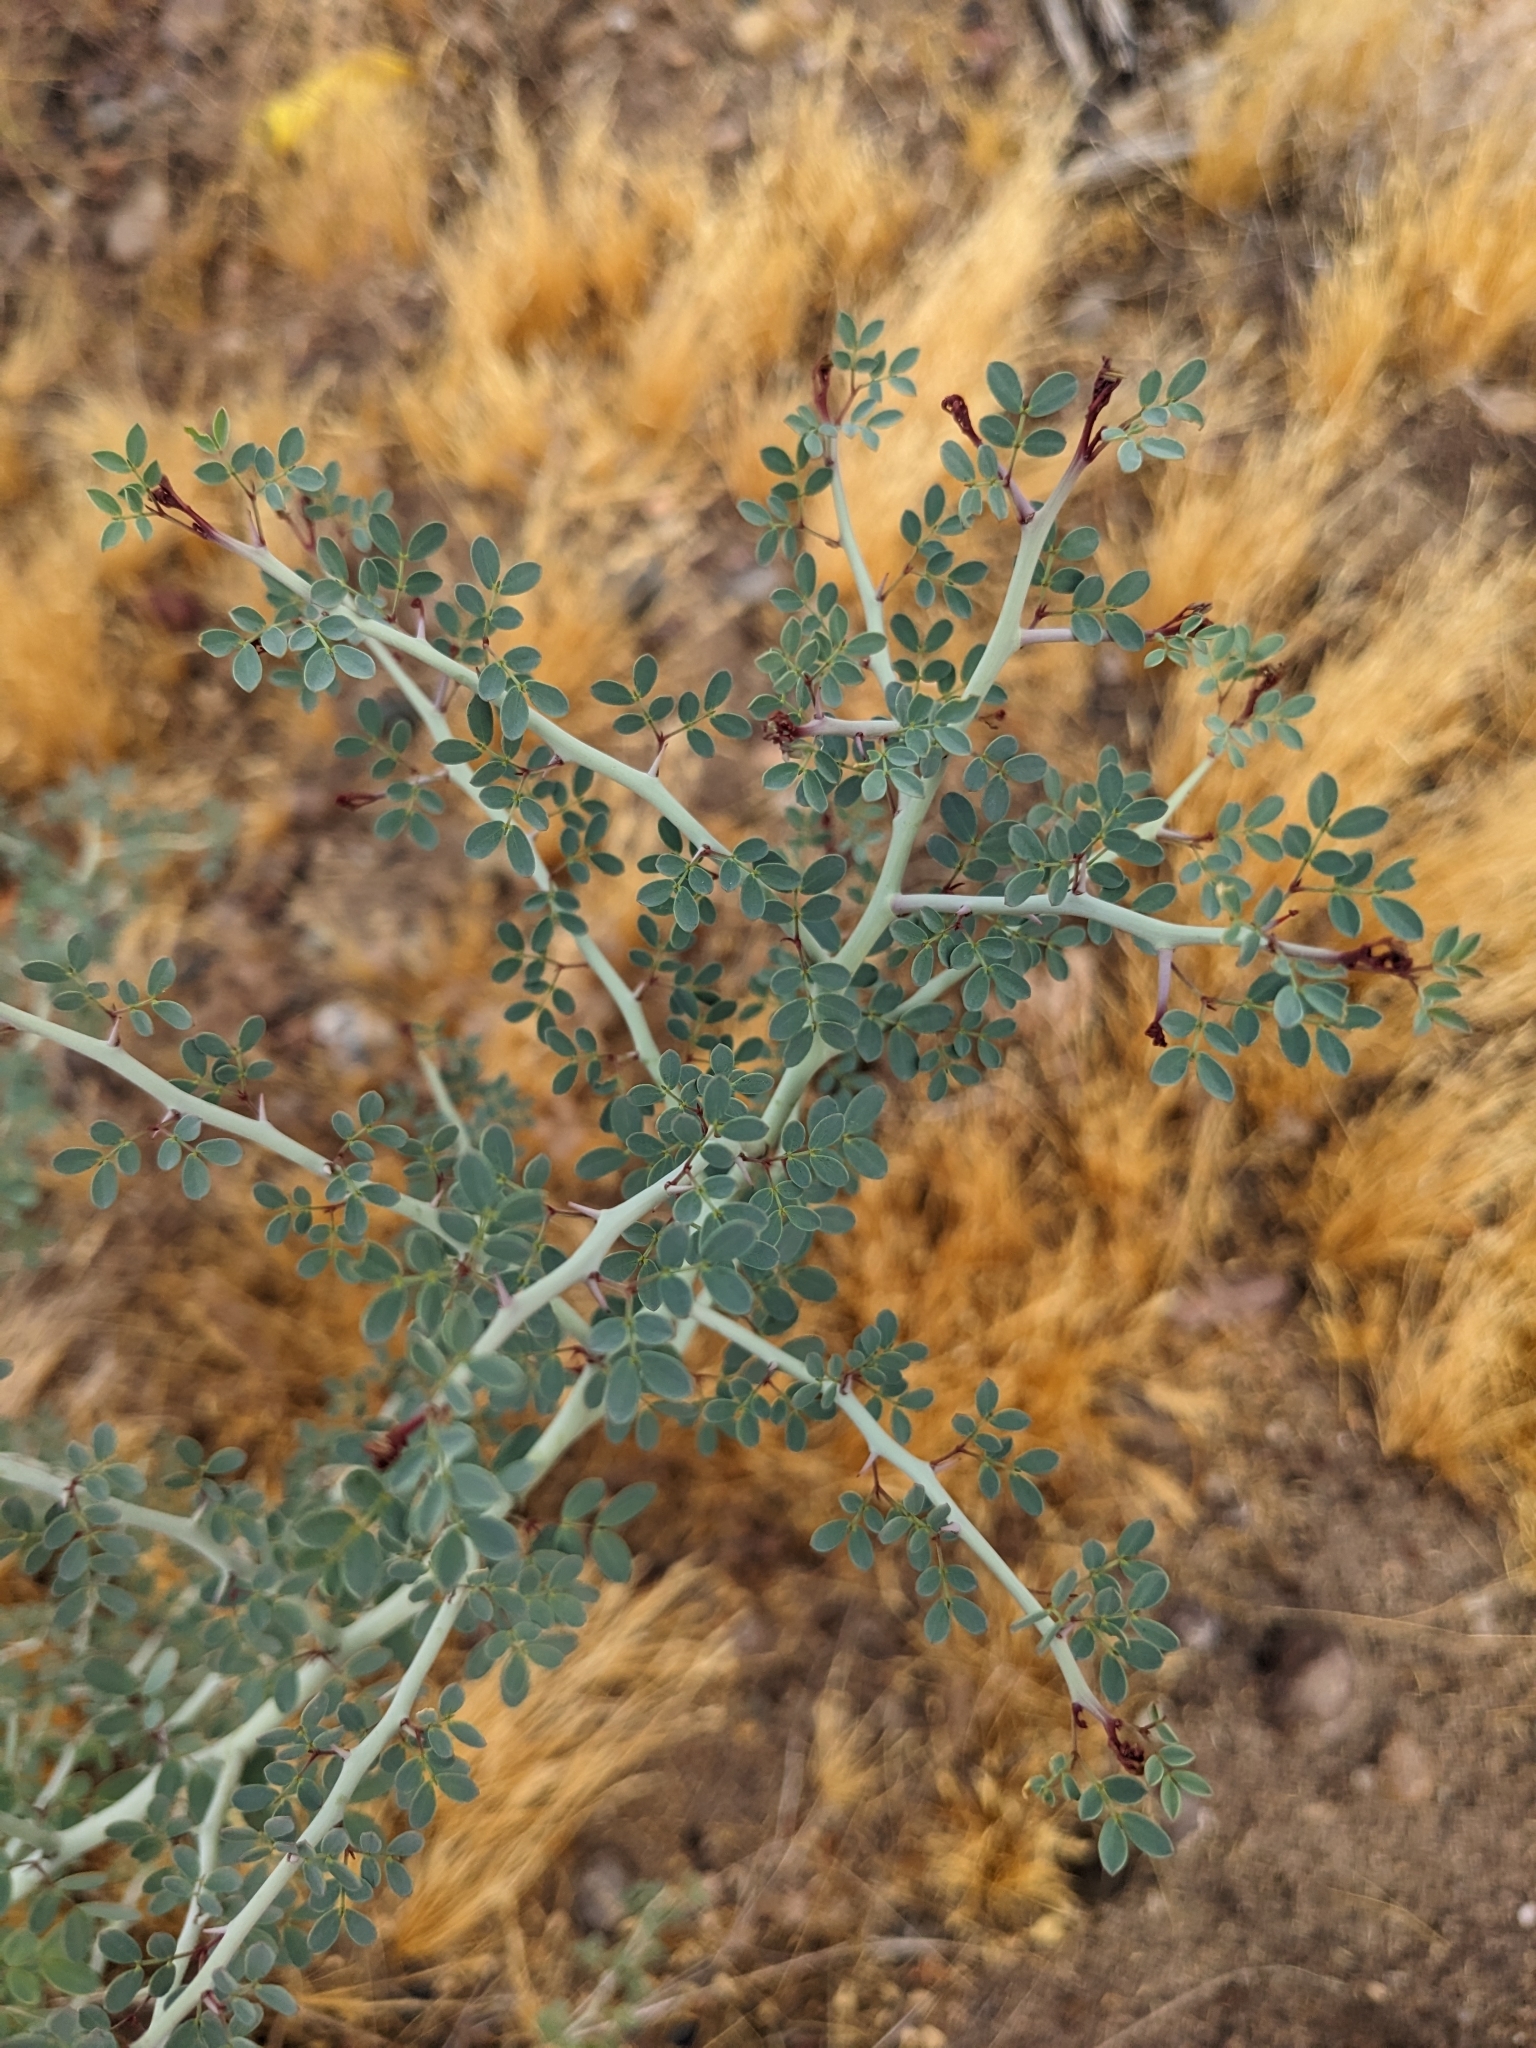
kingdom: Plantae
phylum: Tracheophyta
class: Magnoliopsida
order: Fabales
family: Fabaceae
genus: Parkinsonia
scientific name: Parkinsonia florida
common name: Blue paloverde
